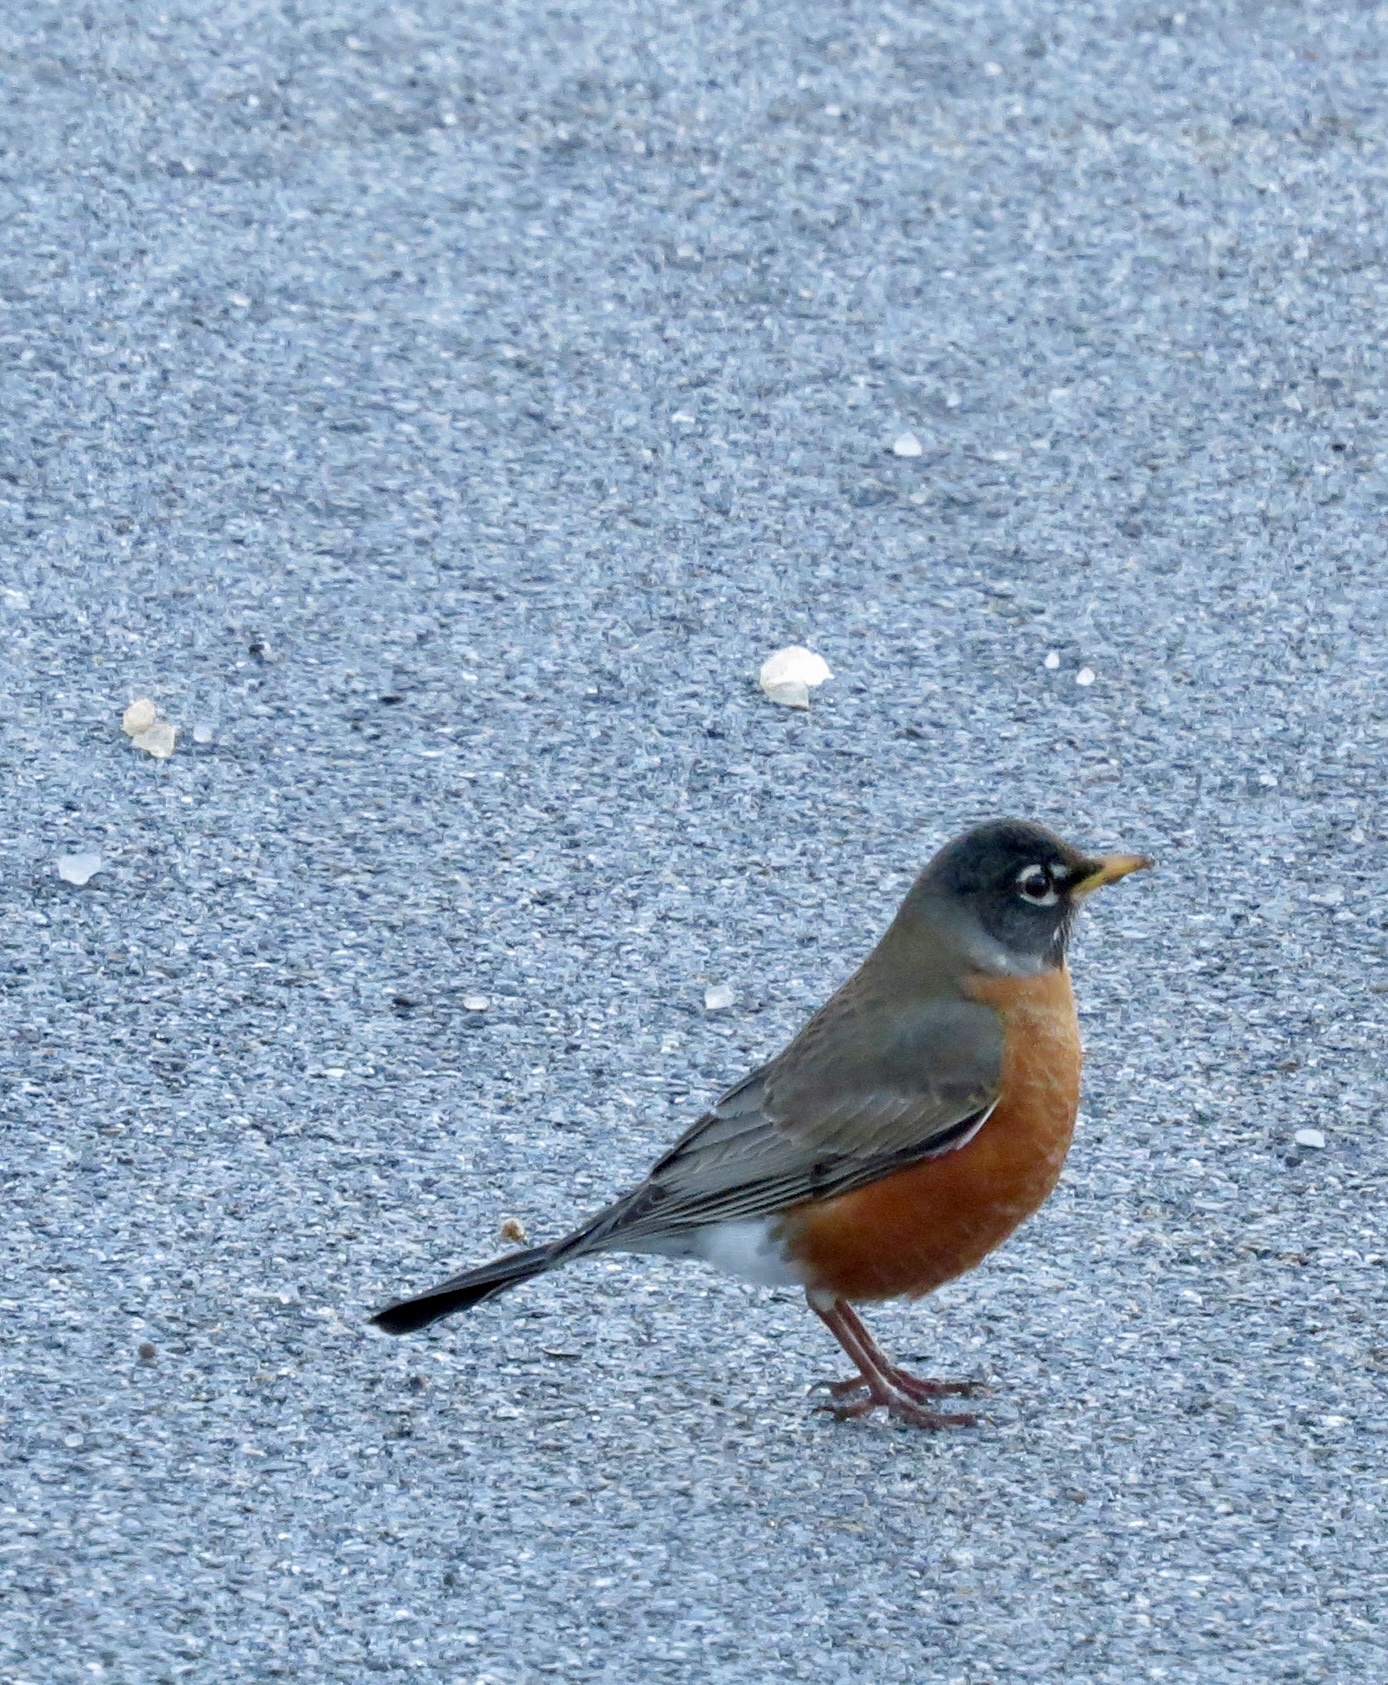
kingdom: Animalia
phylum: Chordata
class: Aves
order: Passeriformes
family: Turdidae
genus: Turdus
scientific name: Turdus migratorius
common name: American robin
